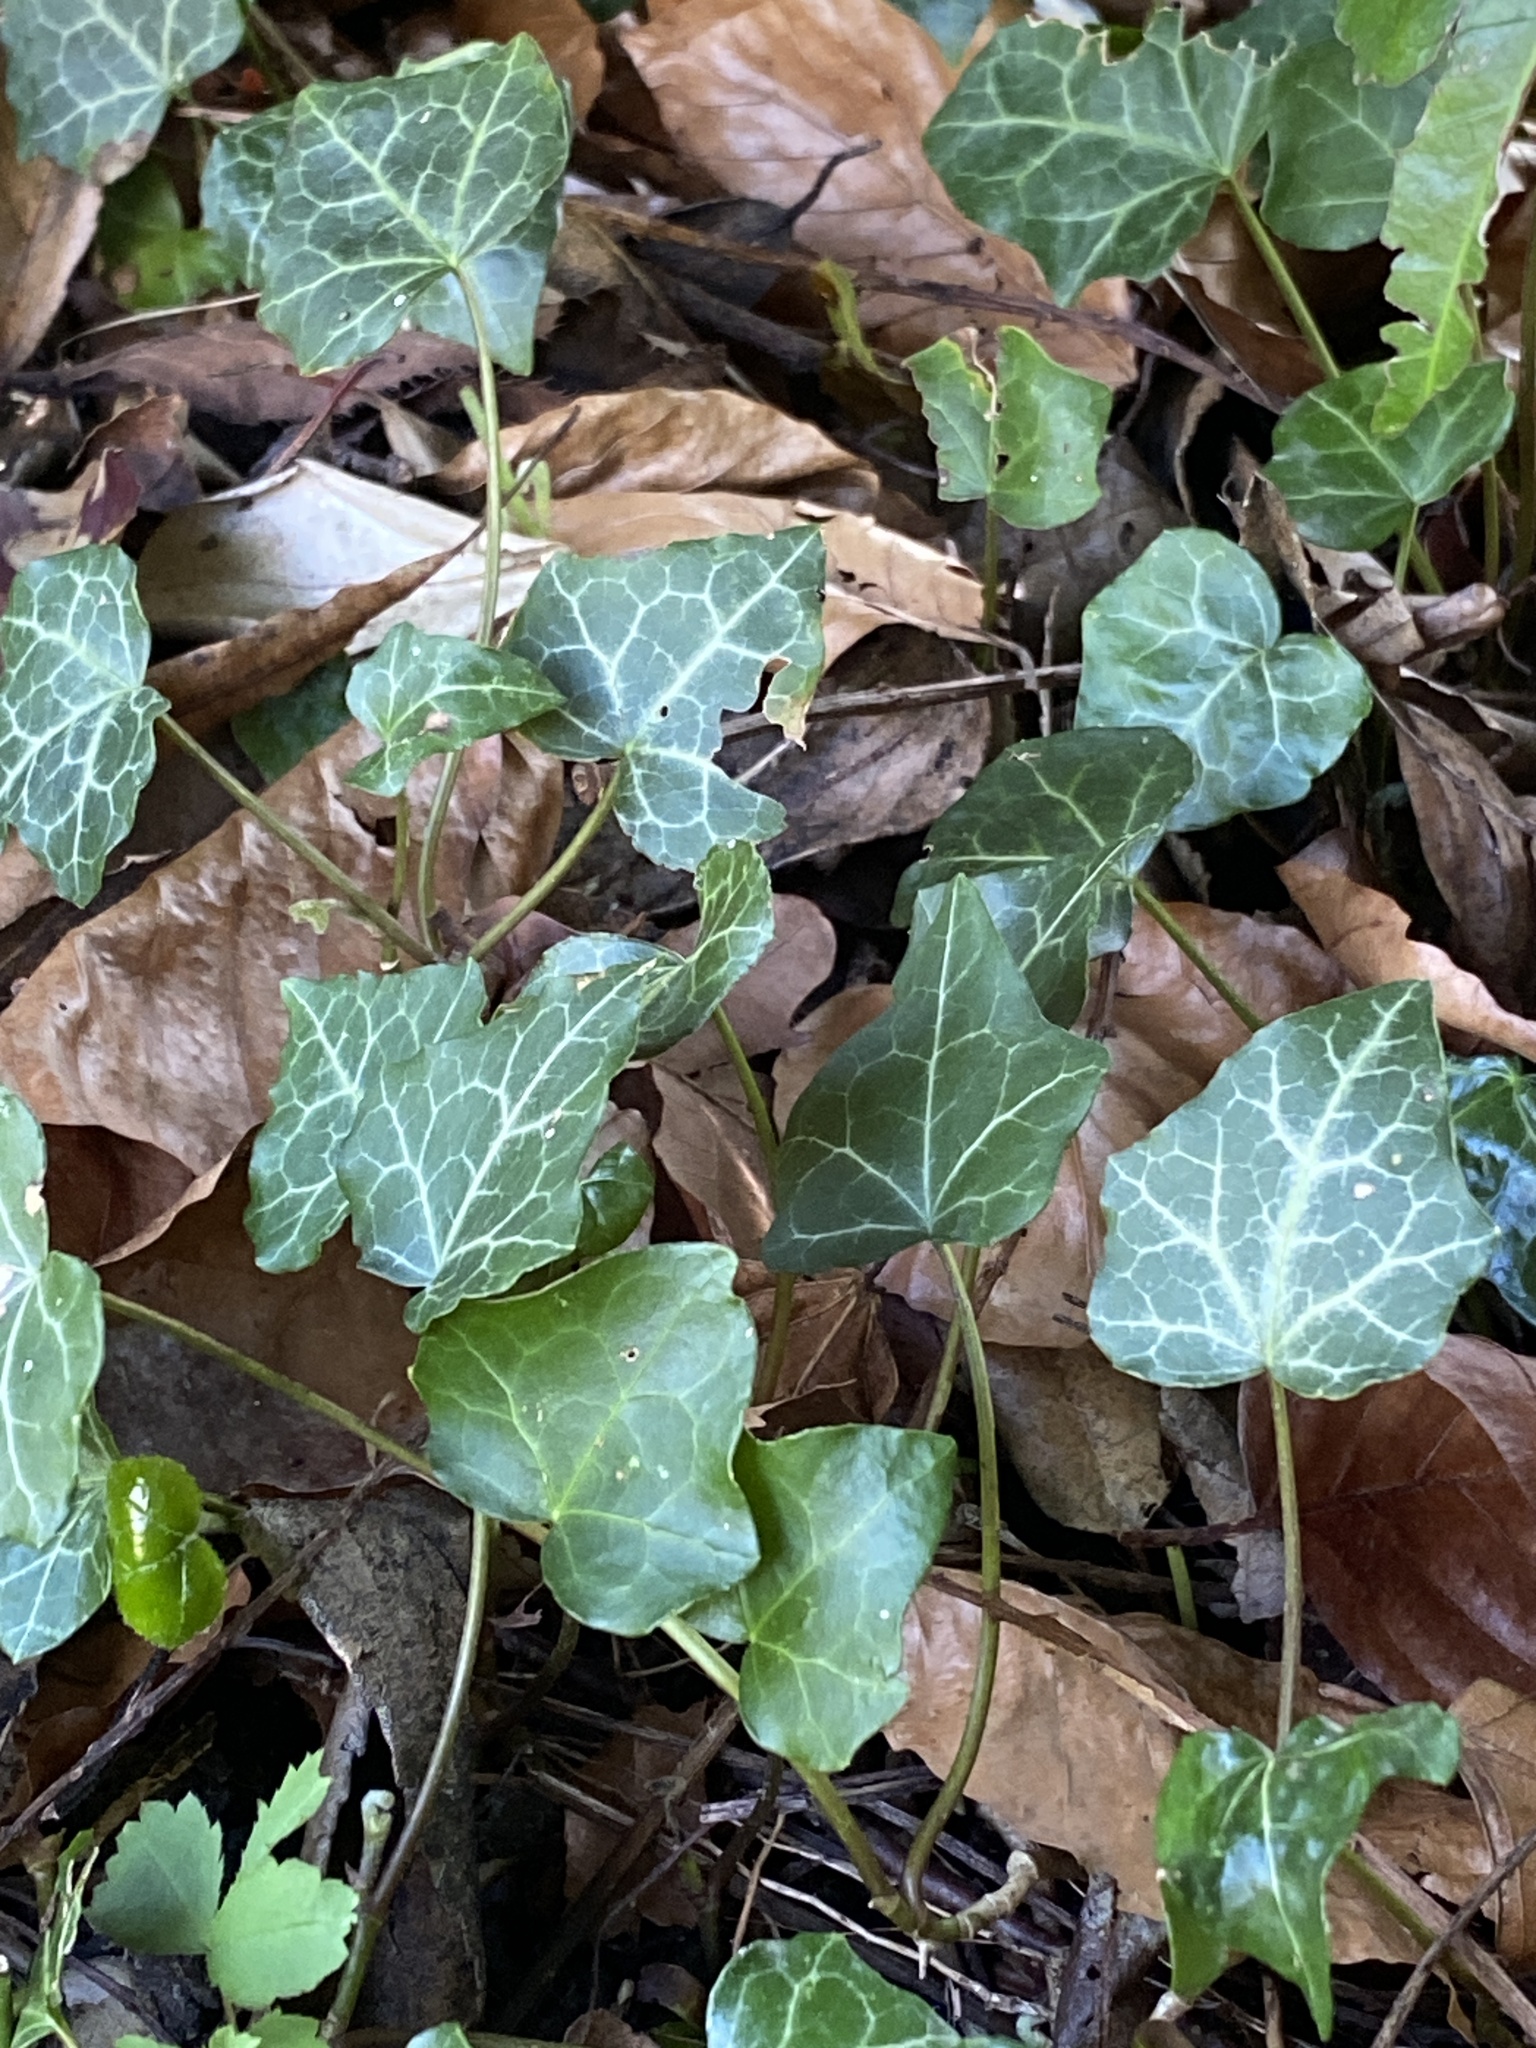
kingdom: Plantae
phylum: Tracheophyta
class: Magnoliopsida
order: Apiales
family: Araliaceae
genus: Hedera
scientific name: Hedera helix
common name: Ivy
